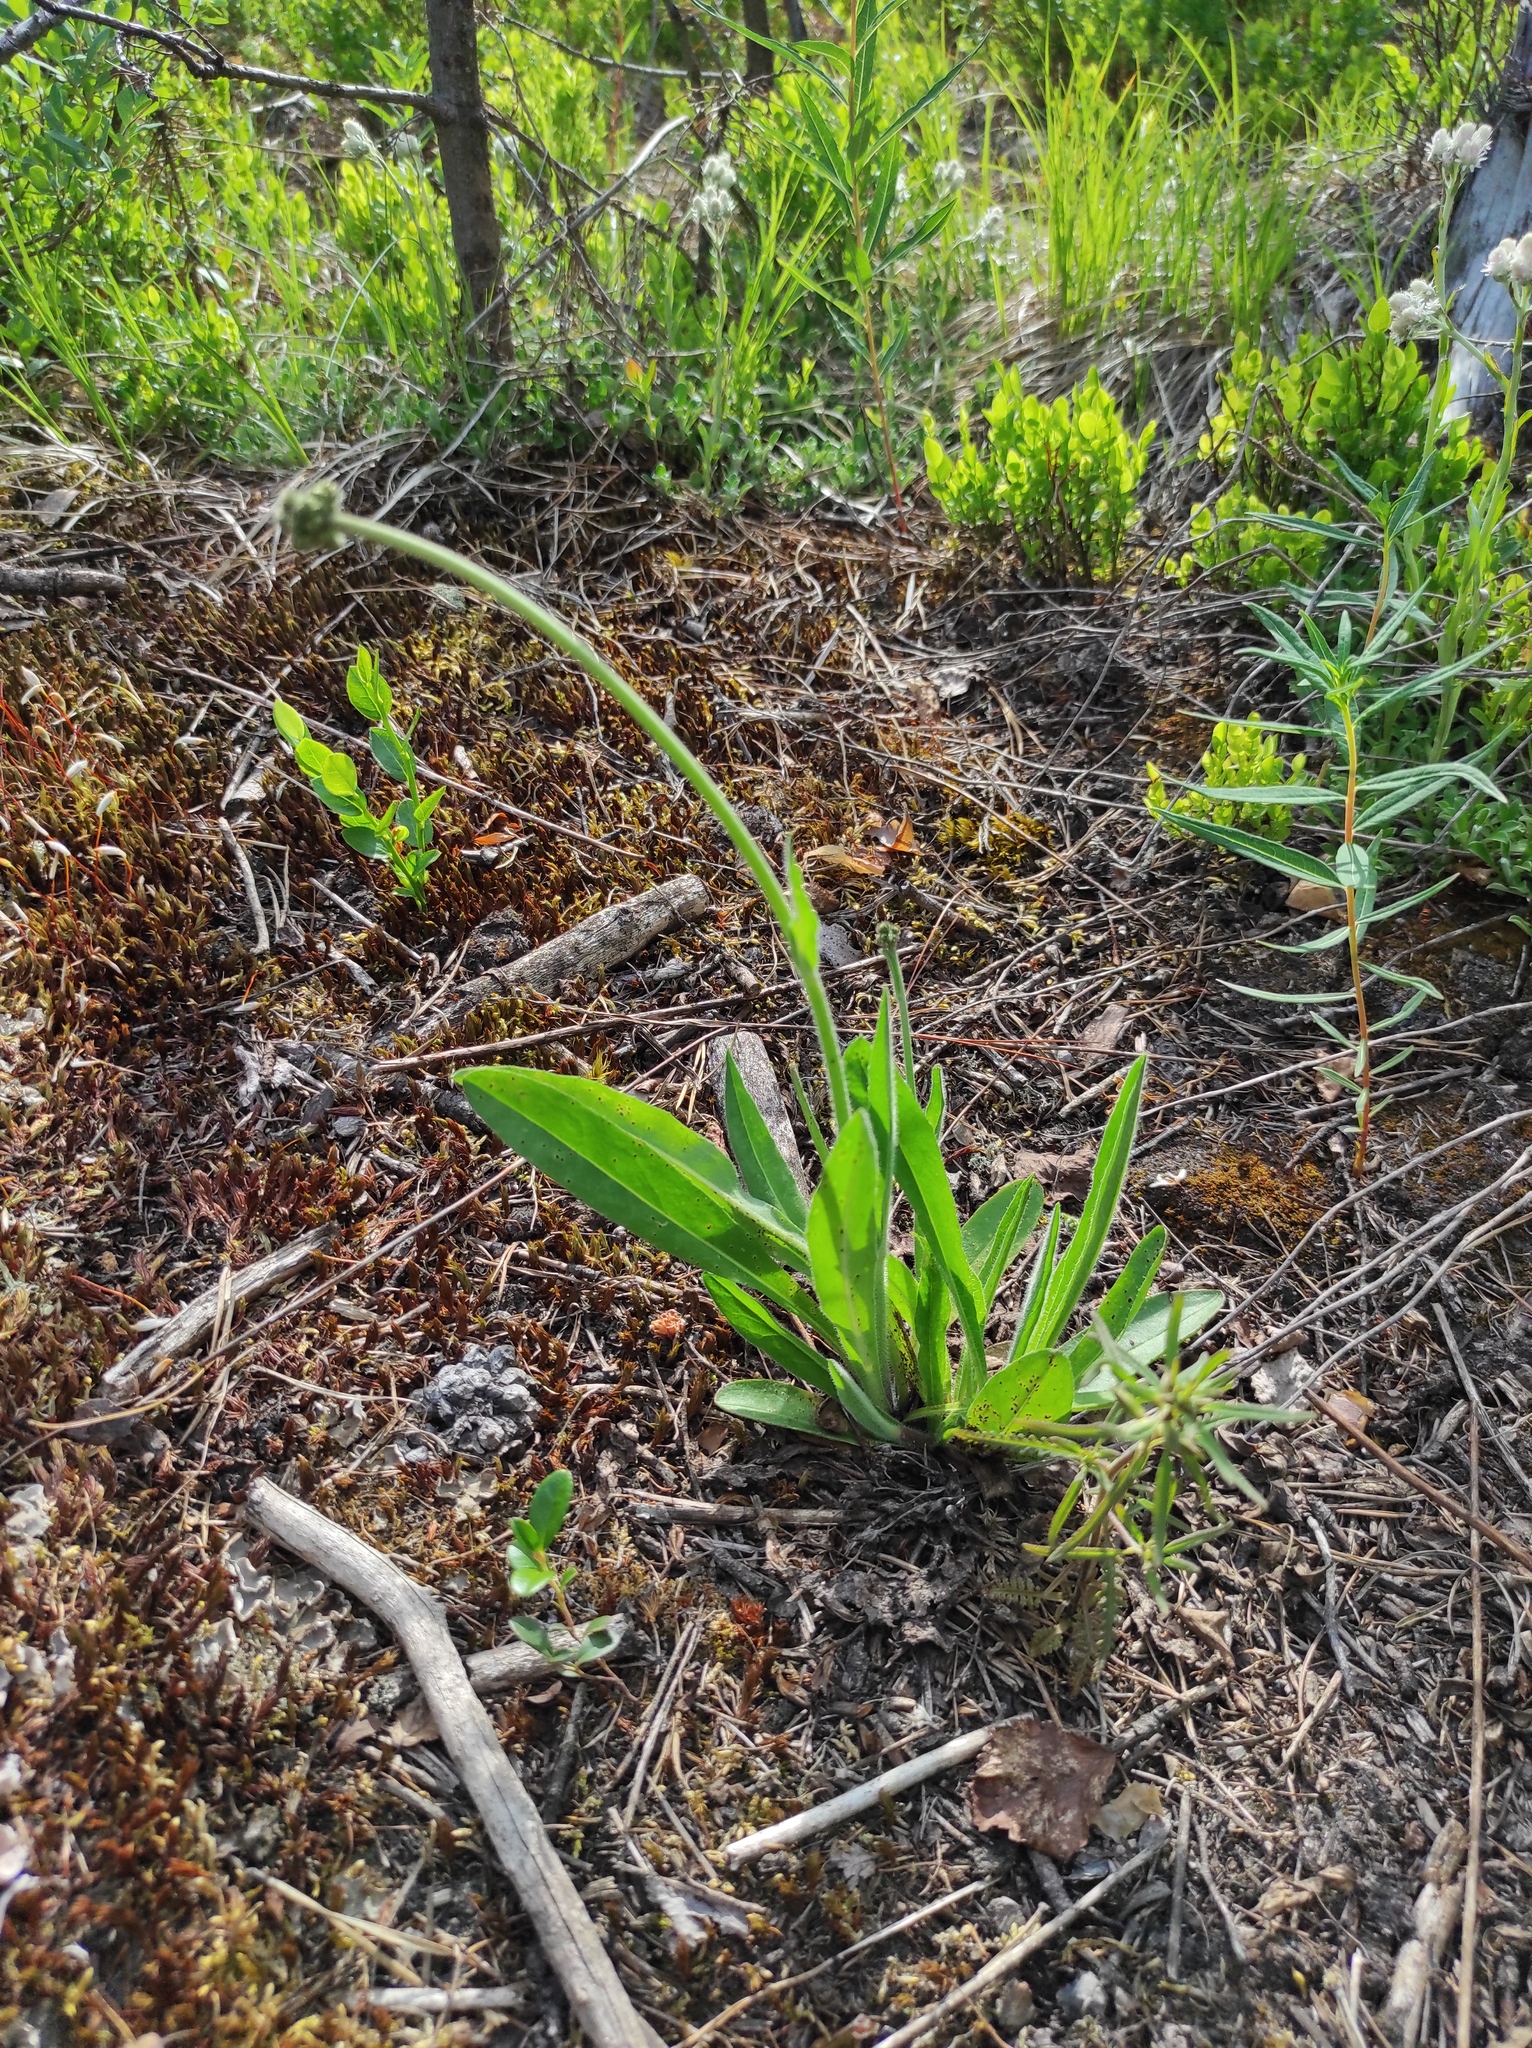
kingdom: Plantae
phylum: Tracheophyta
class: Magnoliopsida
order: Ericales
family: Ericaceae
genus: Vaccinium
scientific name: Vaccinium myrtillus
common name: Bilberry
